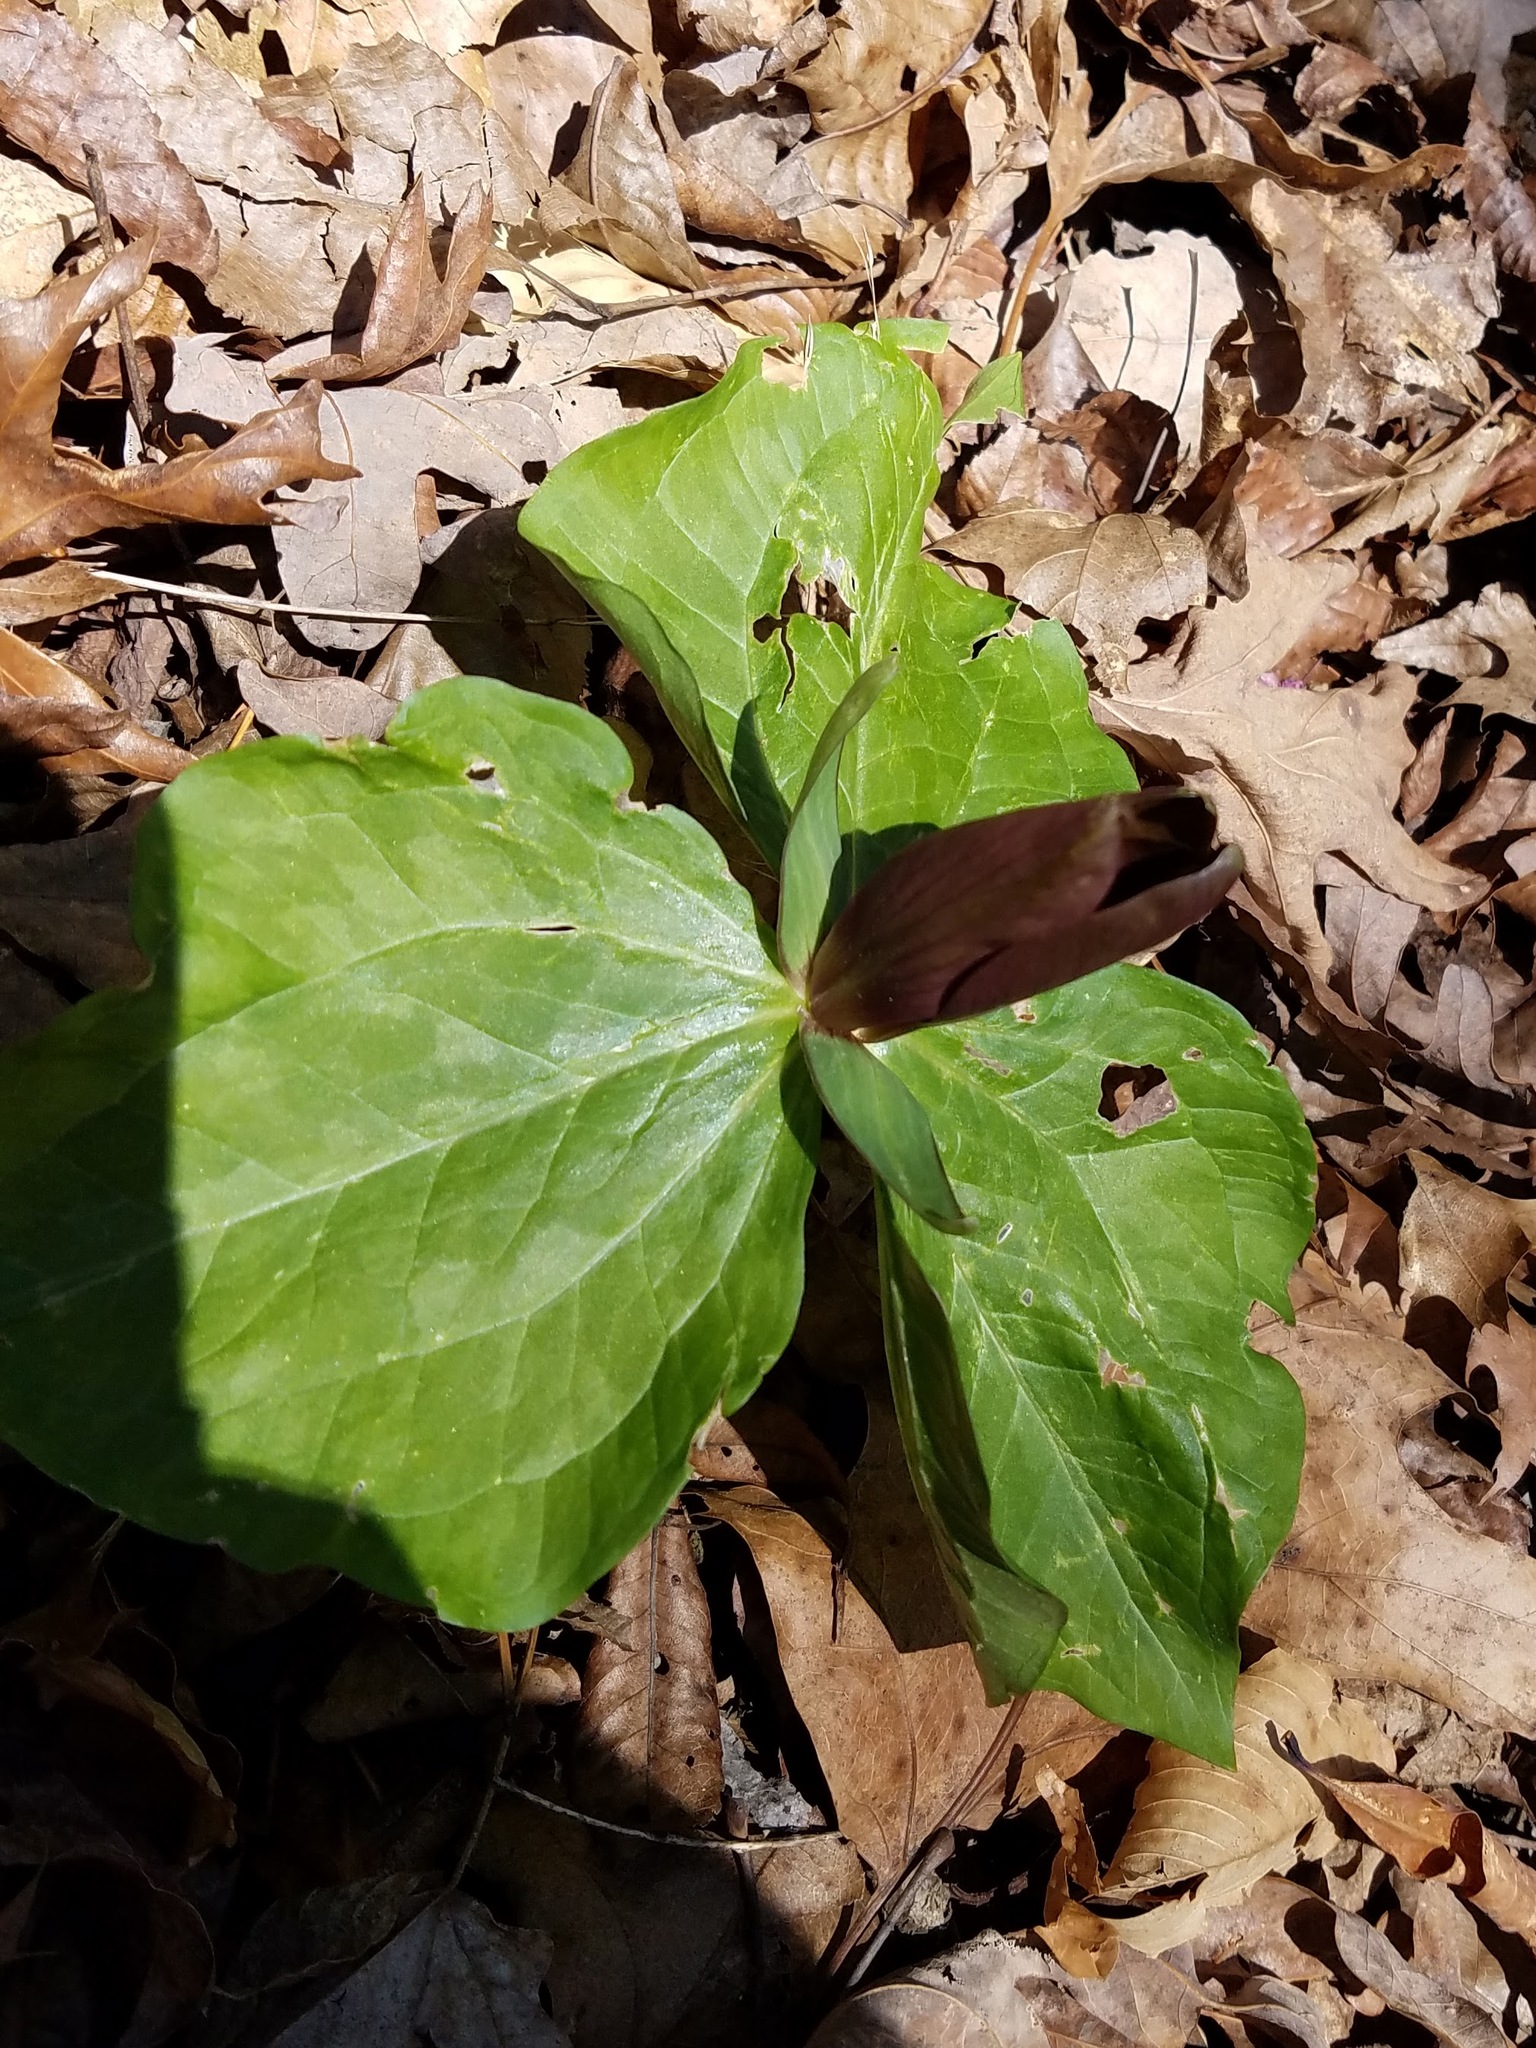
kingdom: Plantae
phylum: Tracheophyta
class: Liliopsida
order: Liliales
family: Melanthiaceae
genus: Trillium
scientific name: Trillium cuneatum
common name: Cuneate trillium
